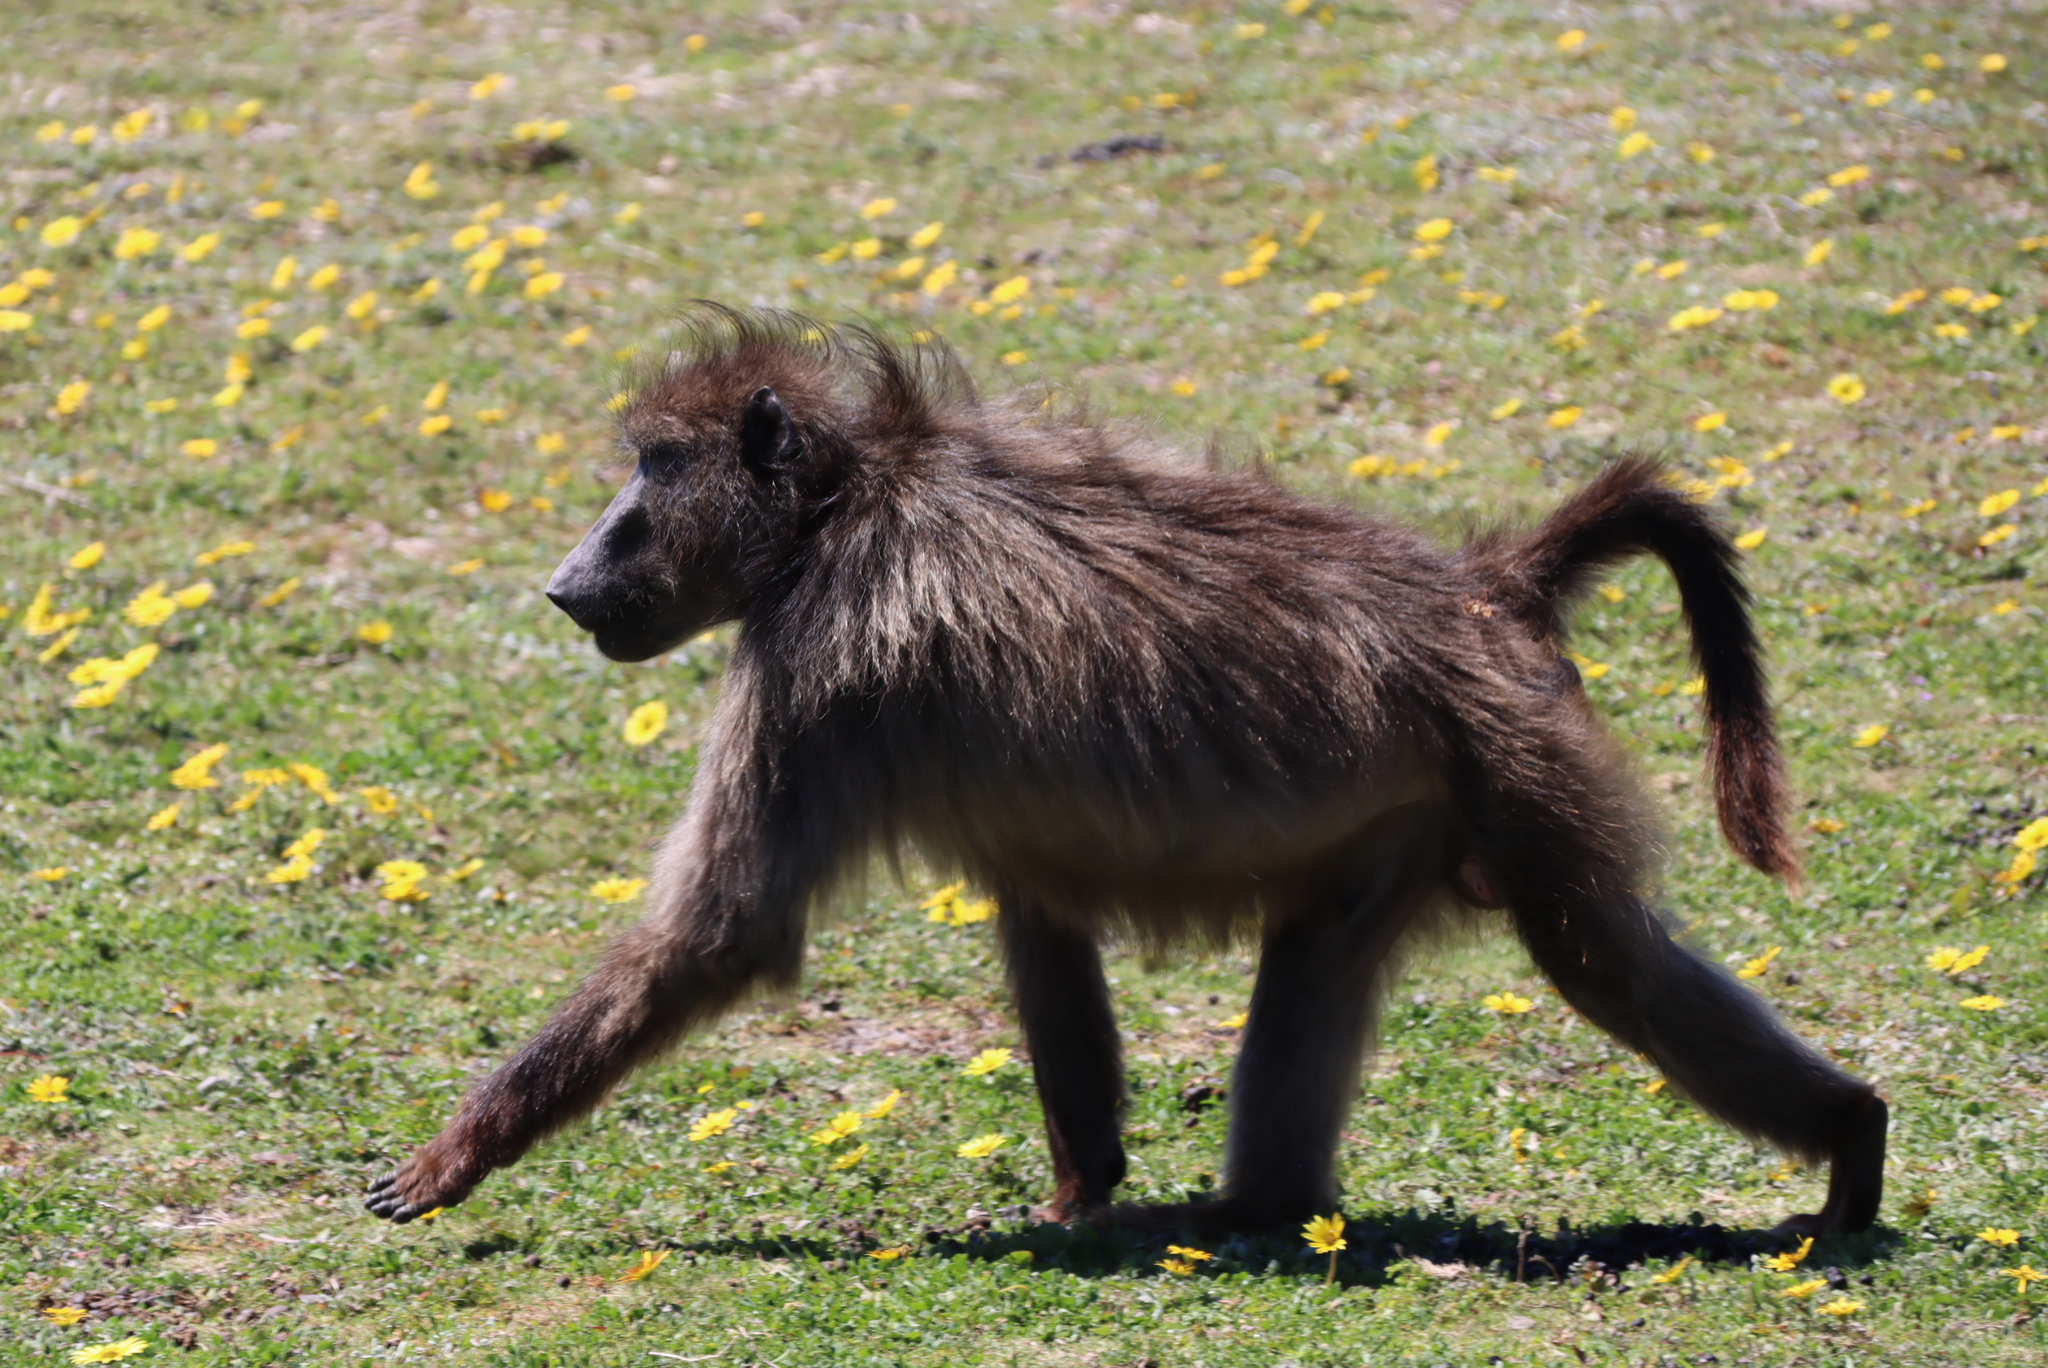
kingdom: Animalia
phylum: Chordata
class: Mammalia
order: Primates
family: Cercopithecidae
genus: Papio
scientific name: Papio ursinus
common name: Chacma baboon
